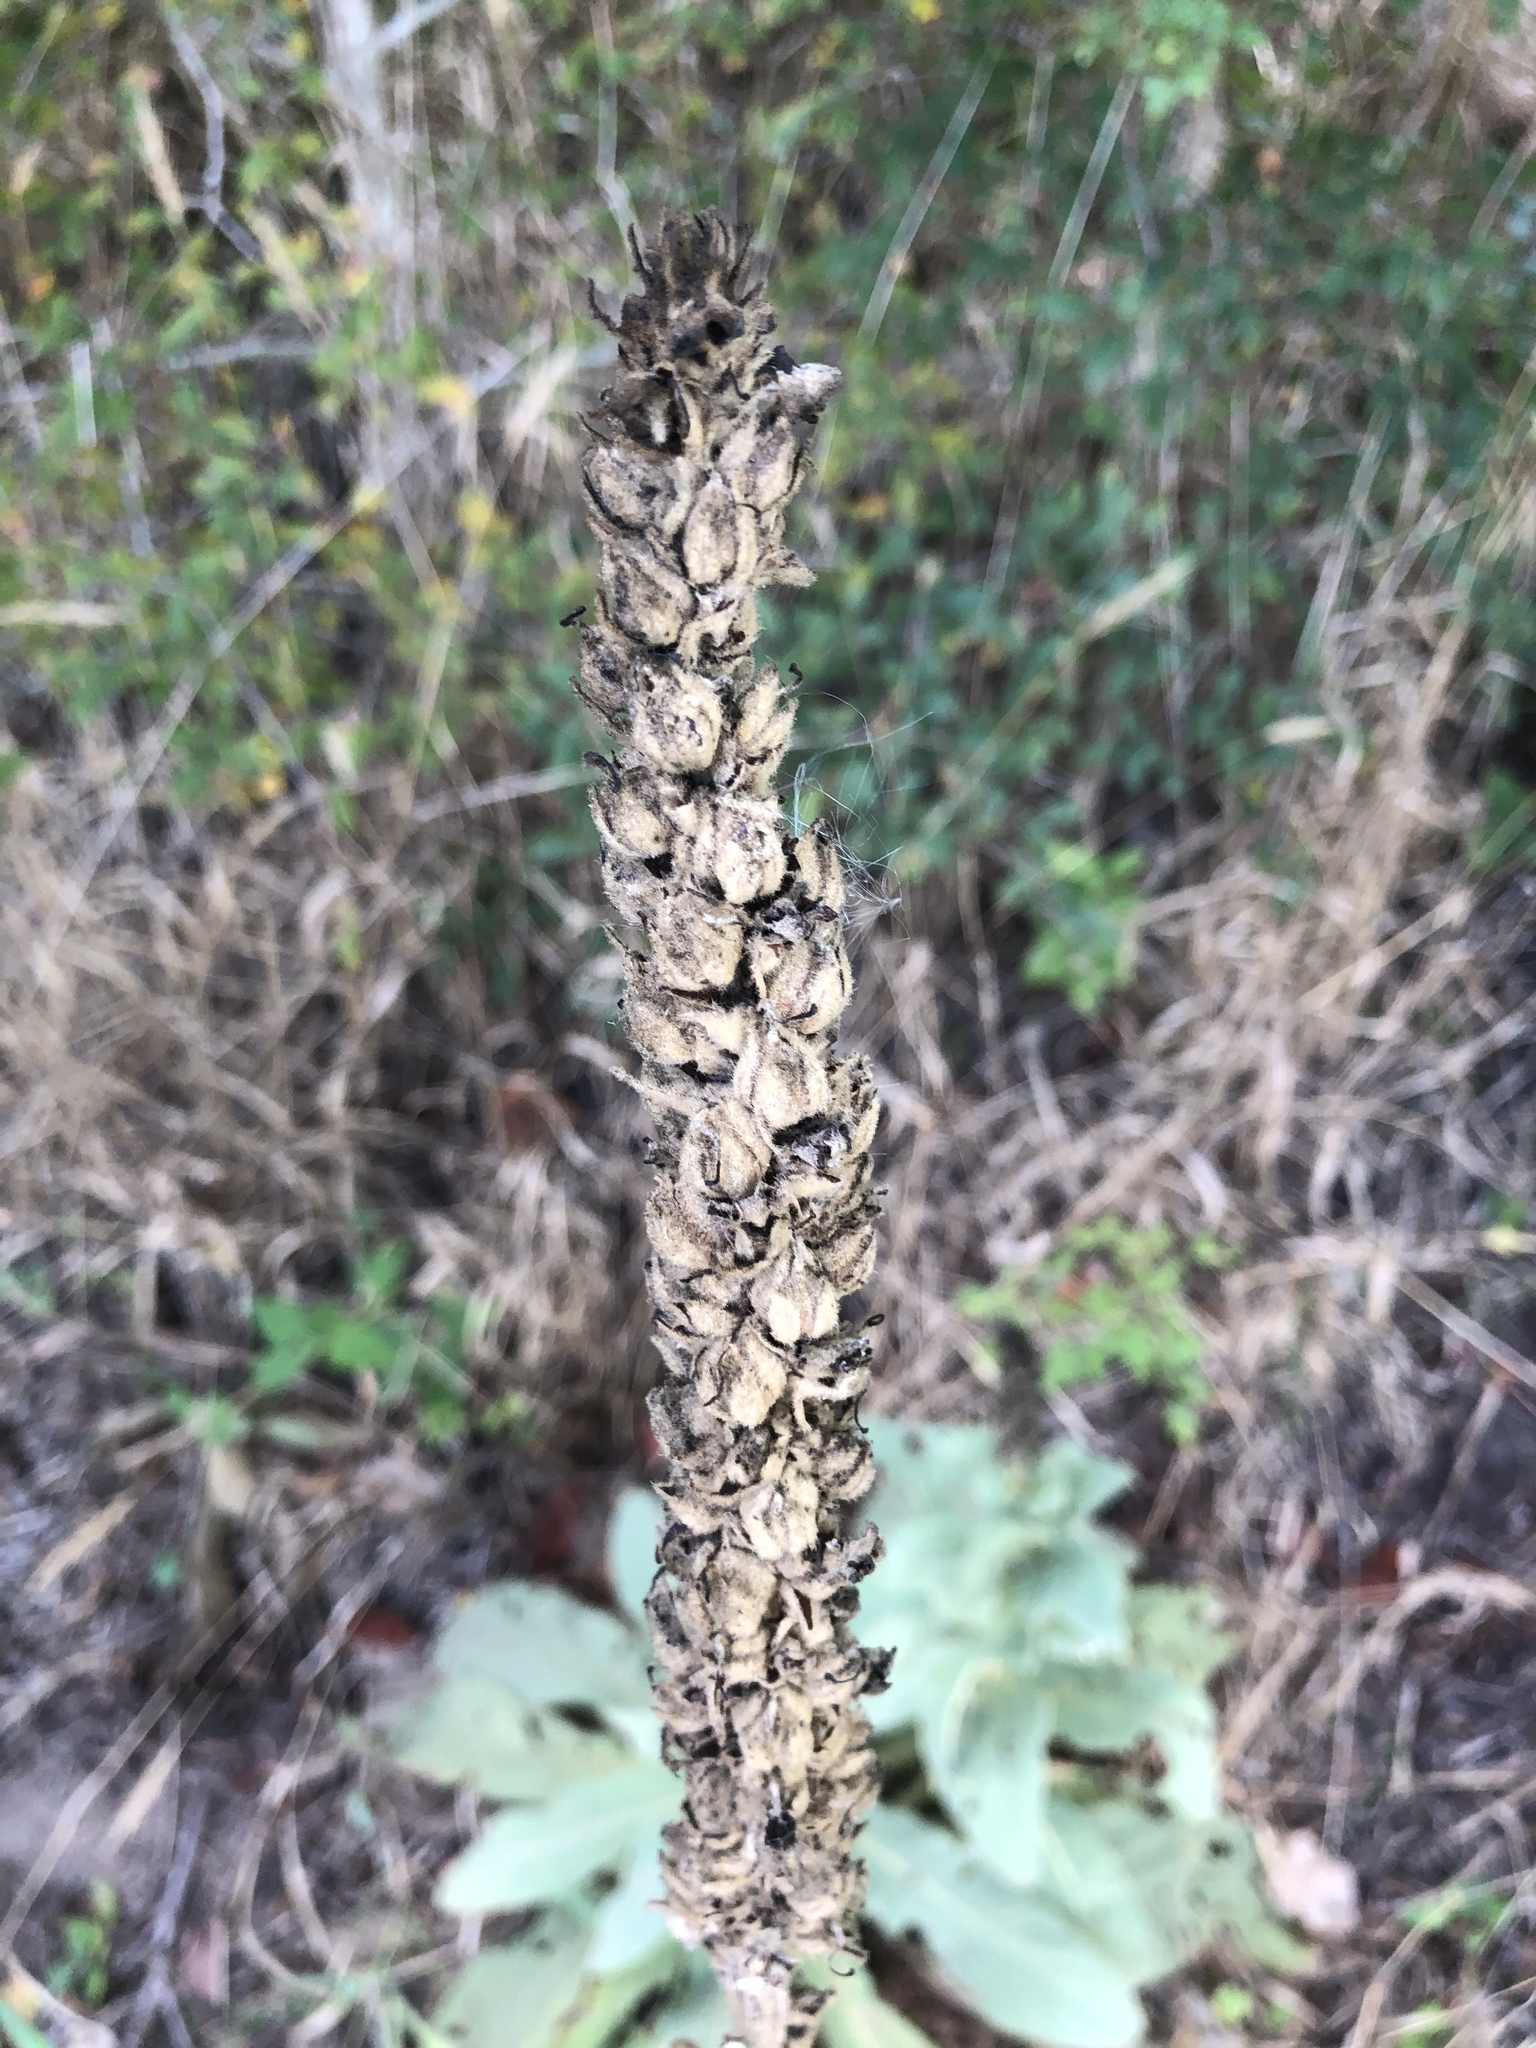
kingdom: Plantae
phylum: Tracheophyta
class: Magnoliopsida
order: Lamiales
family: Scrophulariaceae
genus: Verbascum
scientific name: Verbascum thapsus
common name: Common mullein
